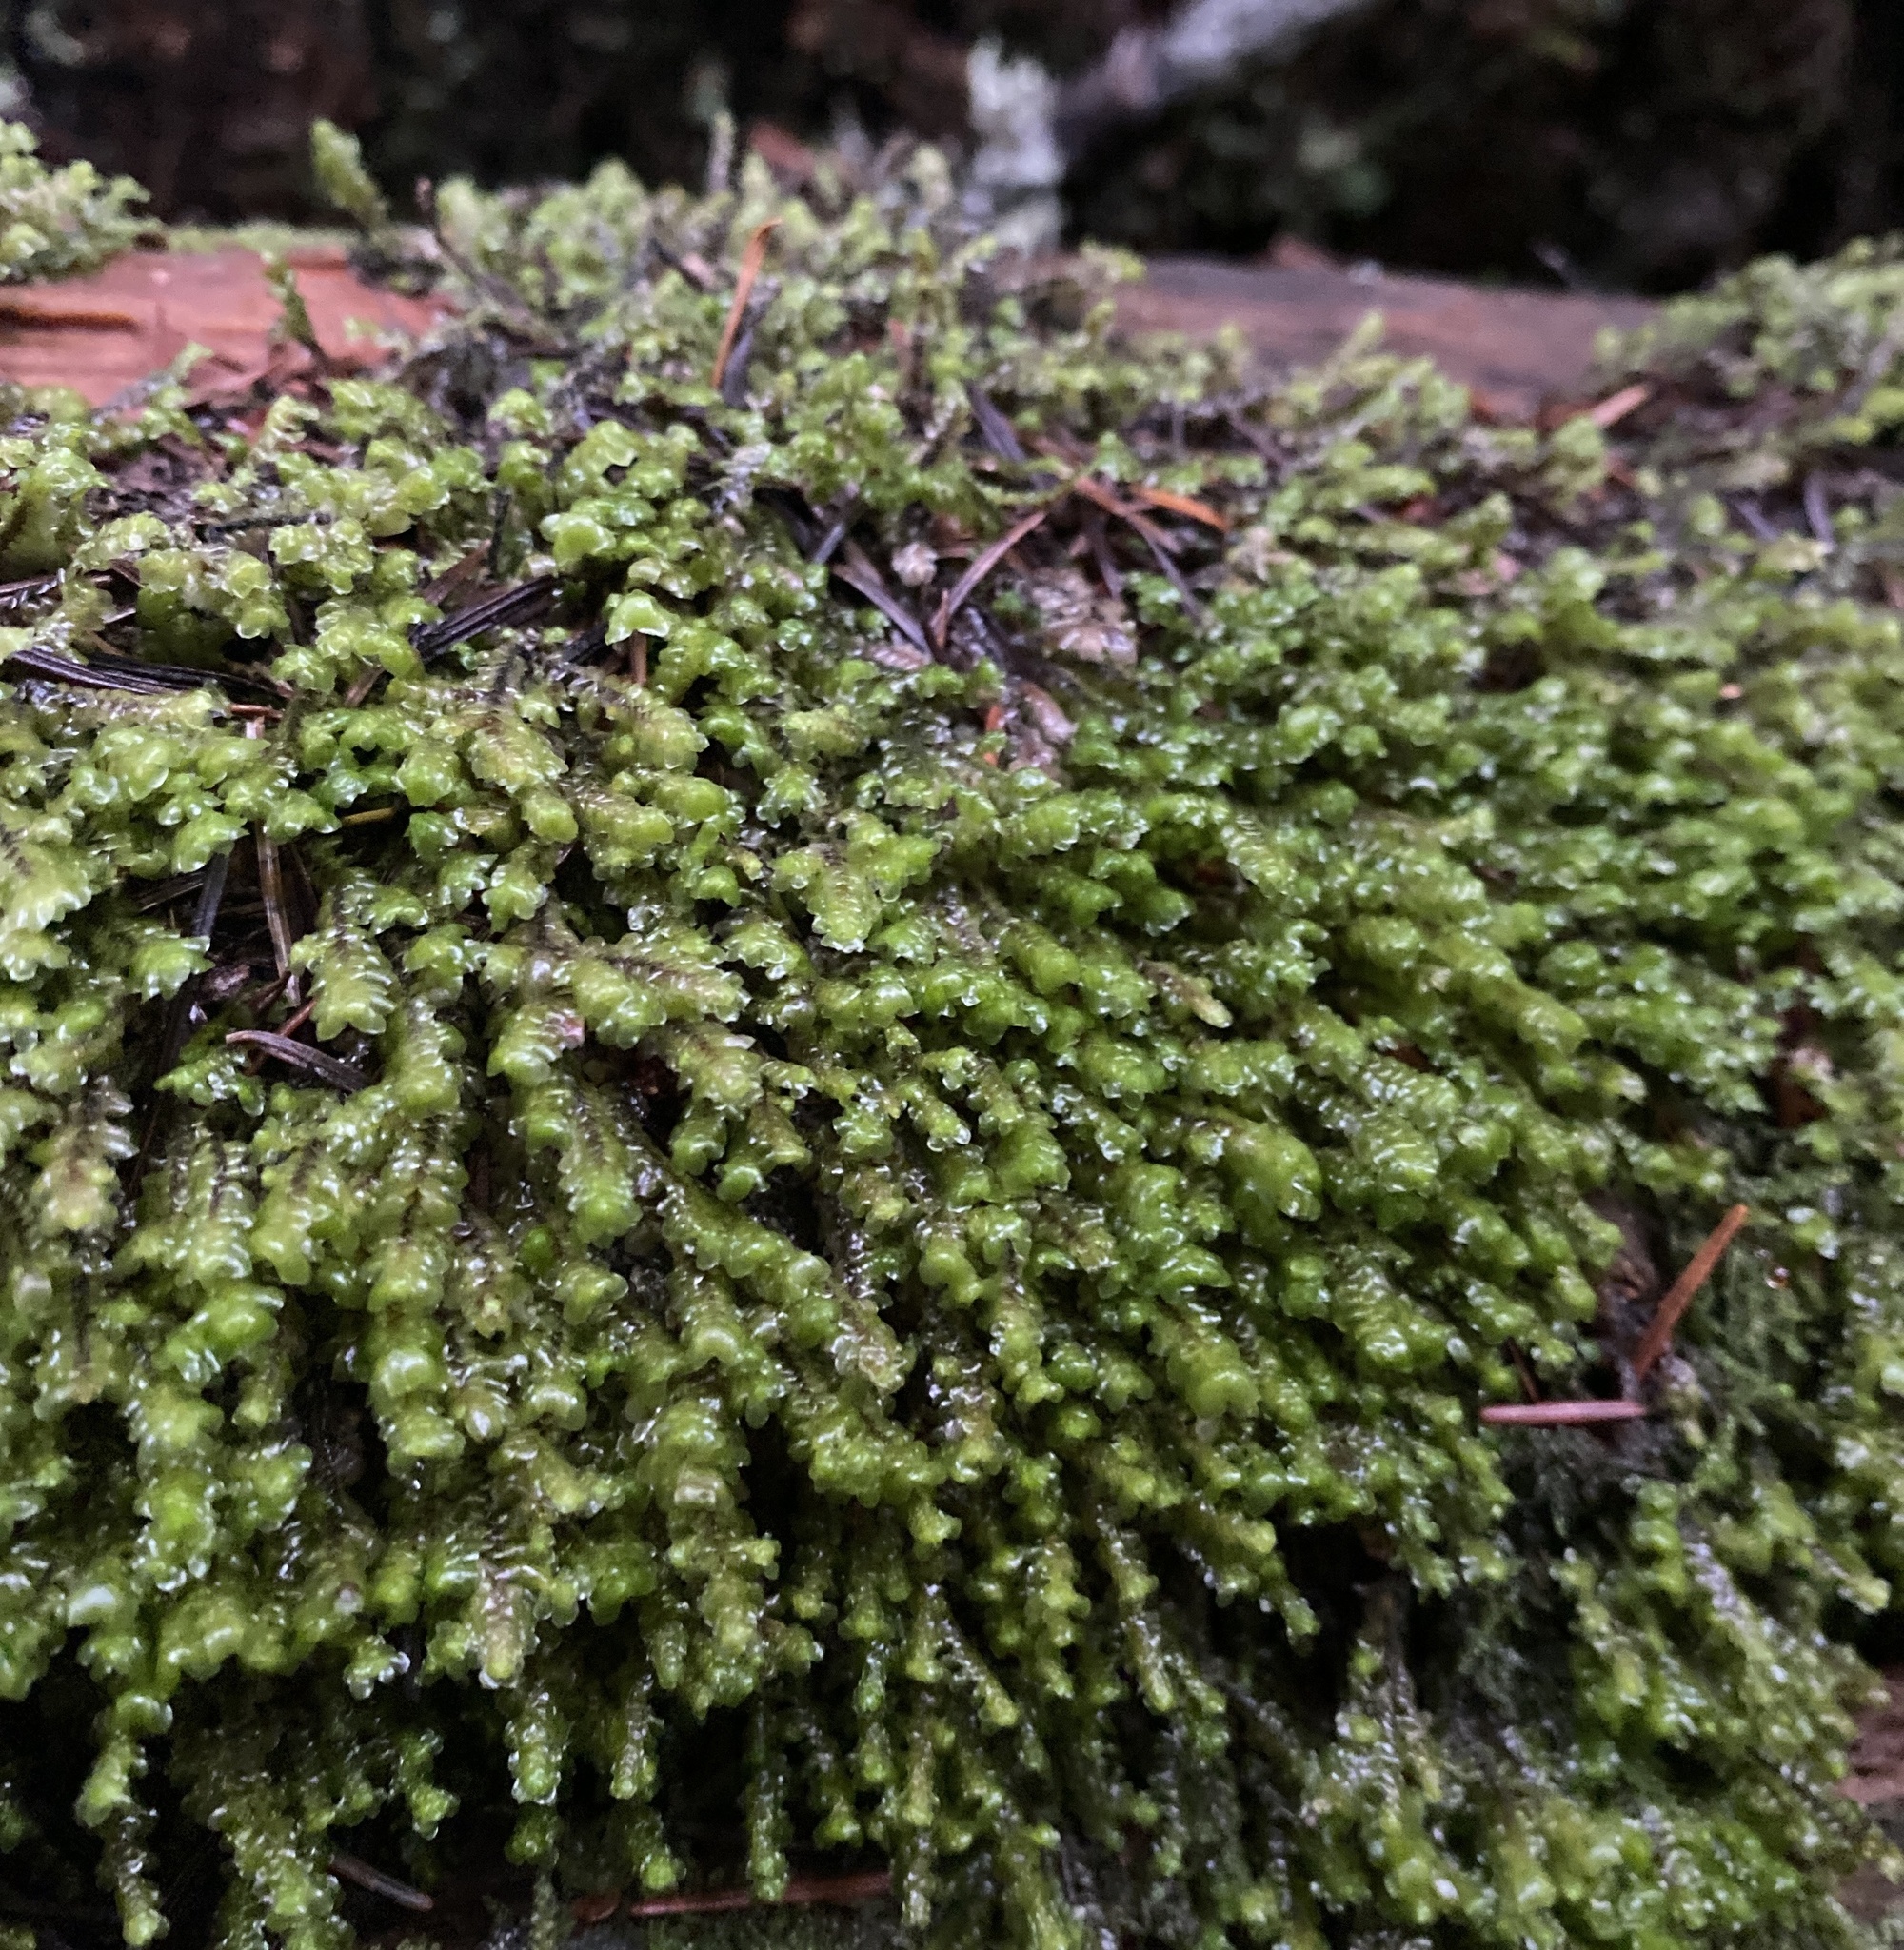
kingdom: Plantae
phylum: Marchantiophyta
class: Jungermanniopsida
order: Jungermanniales
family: Scapaniaceae
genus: Scapania
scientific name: Scapania bolanderi
